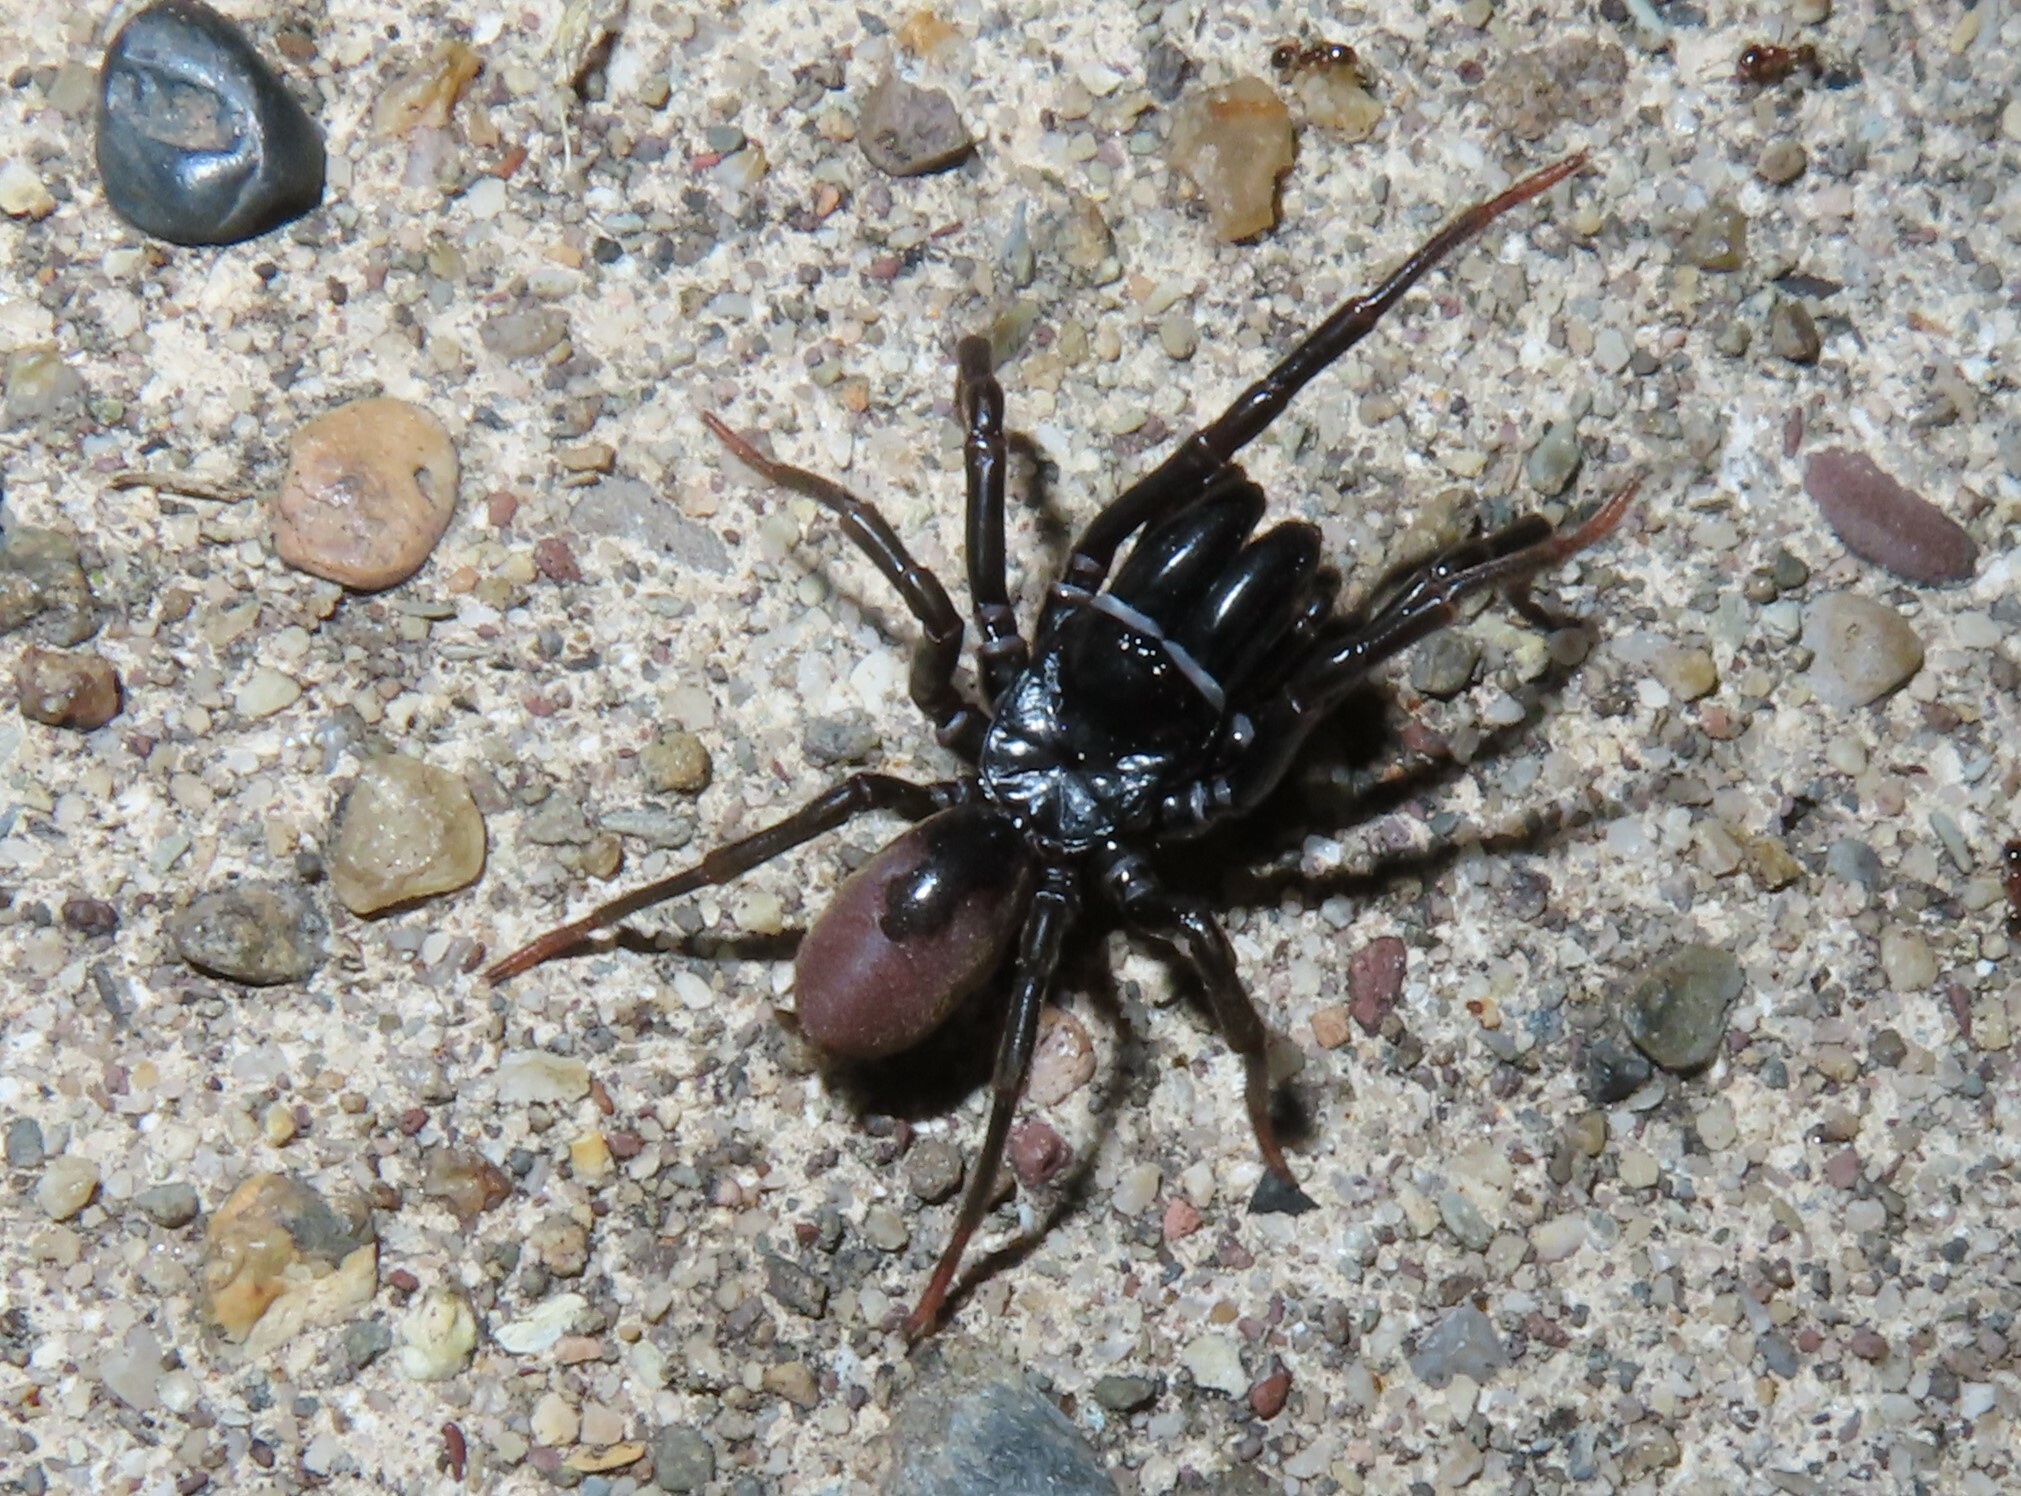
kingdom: Animalia
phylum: Arthropoda
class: Arachnida
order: Araneae
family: Atypidae
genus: Atypus
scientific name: Atypus karschi
